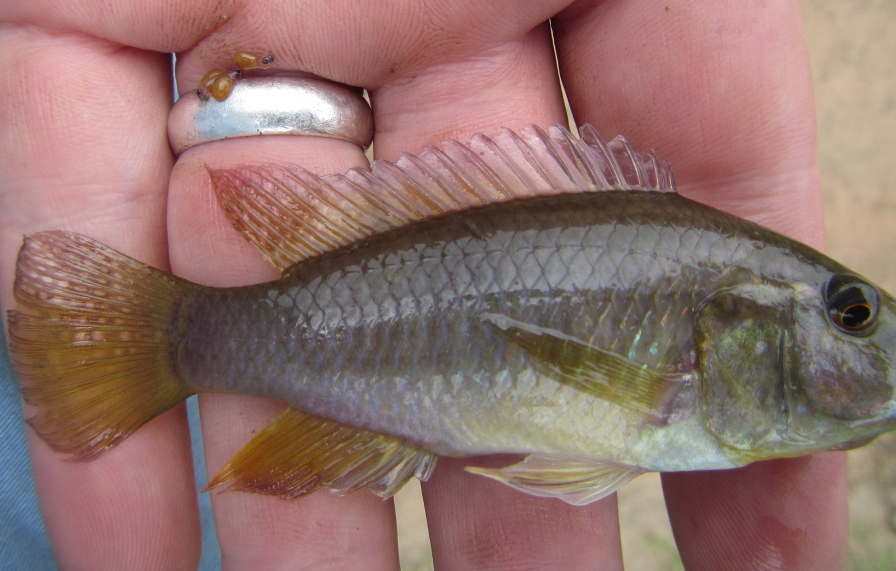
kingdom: Animalia
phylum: Chordata
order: Perciformes
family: Cichlidae
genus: Pseudocrenilabrus
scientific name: Pseudocrenilabrus philander
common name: Southern mouthbrooder
